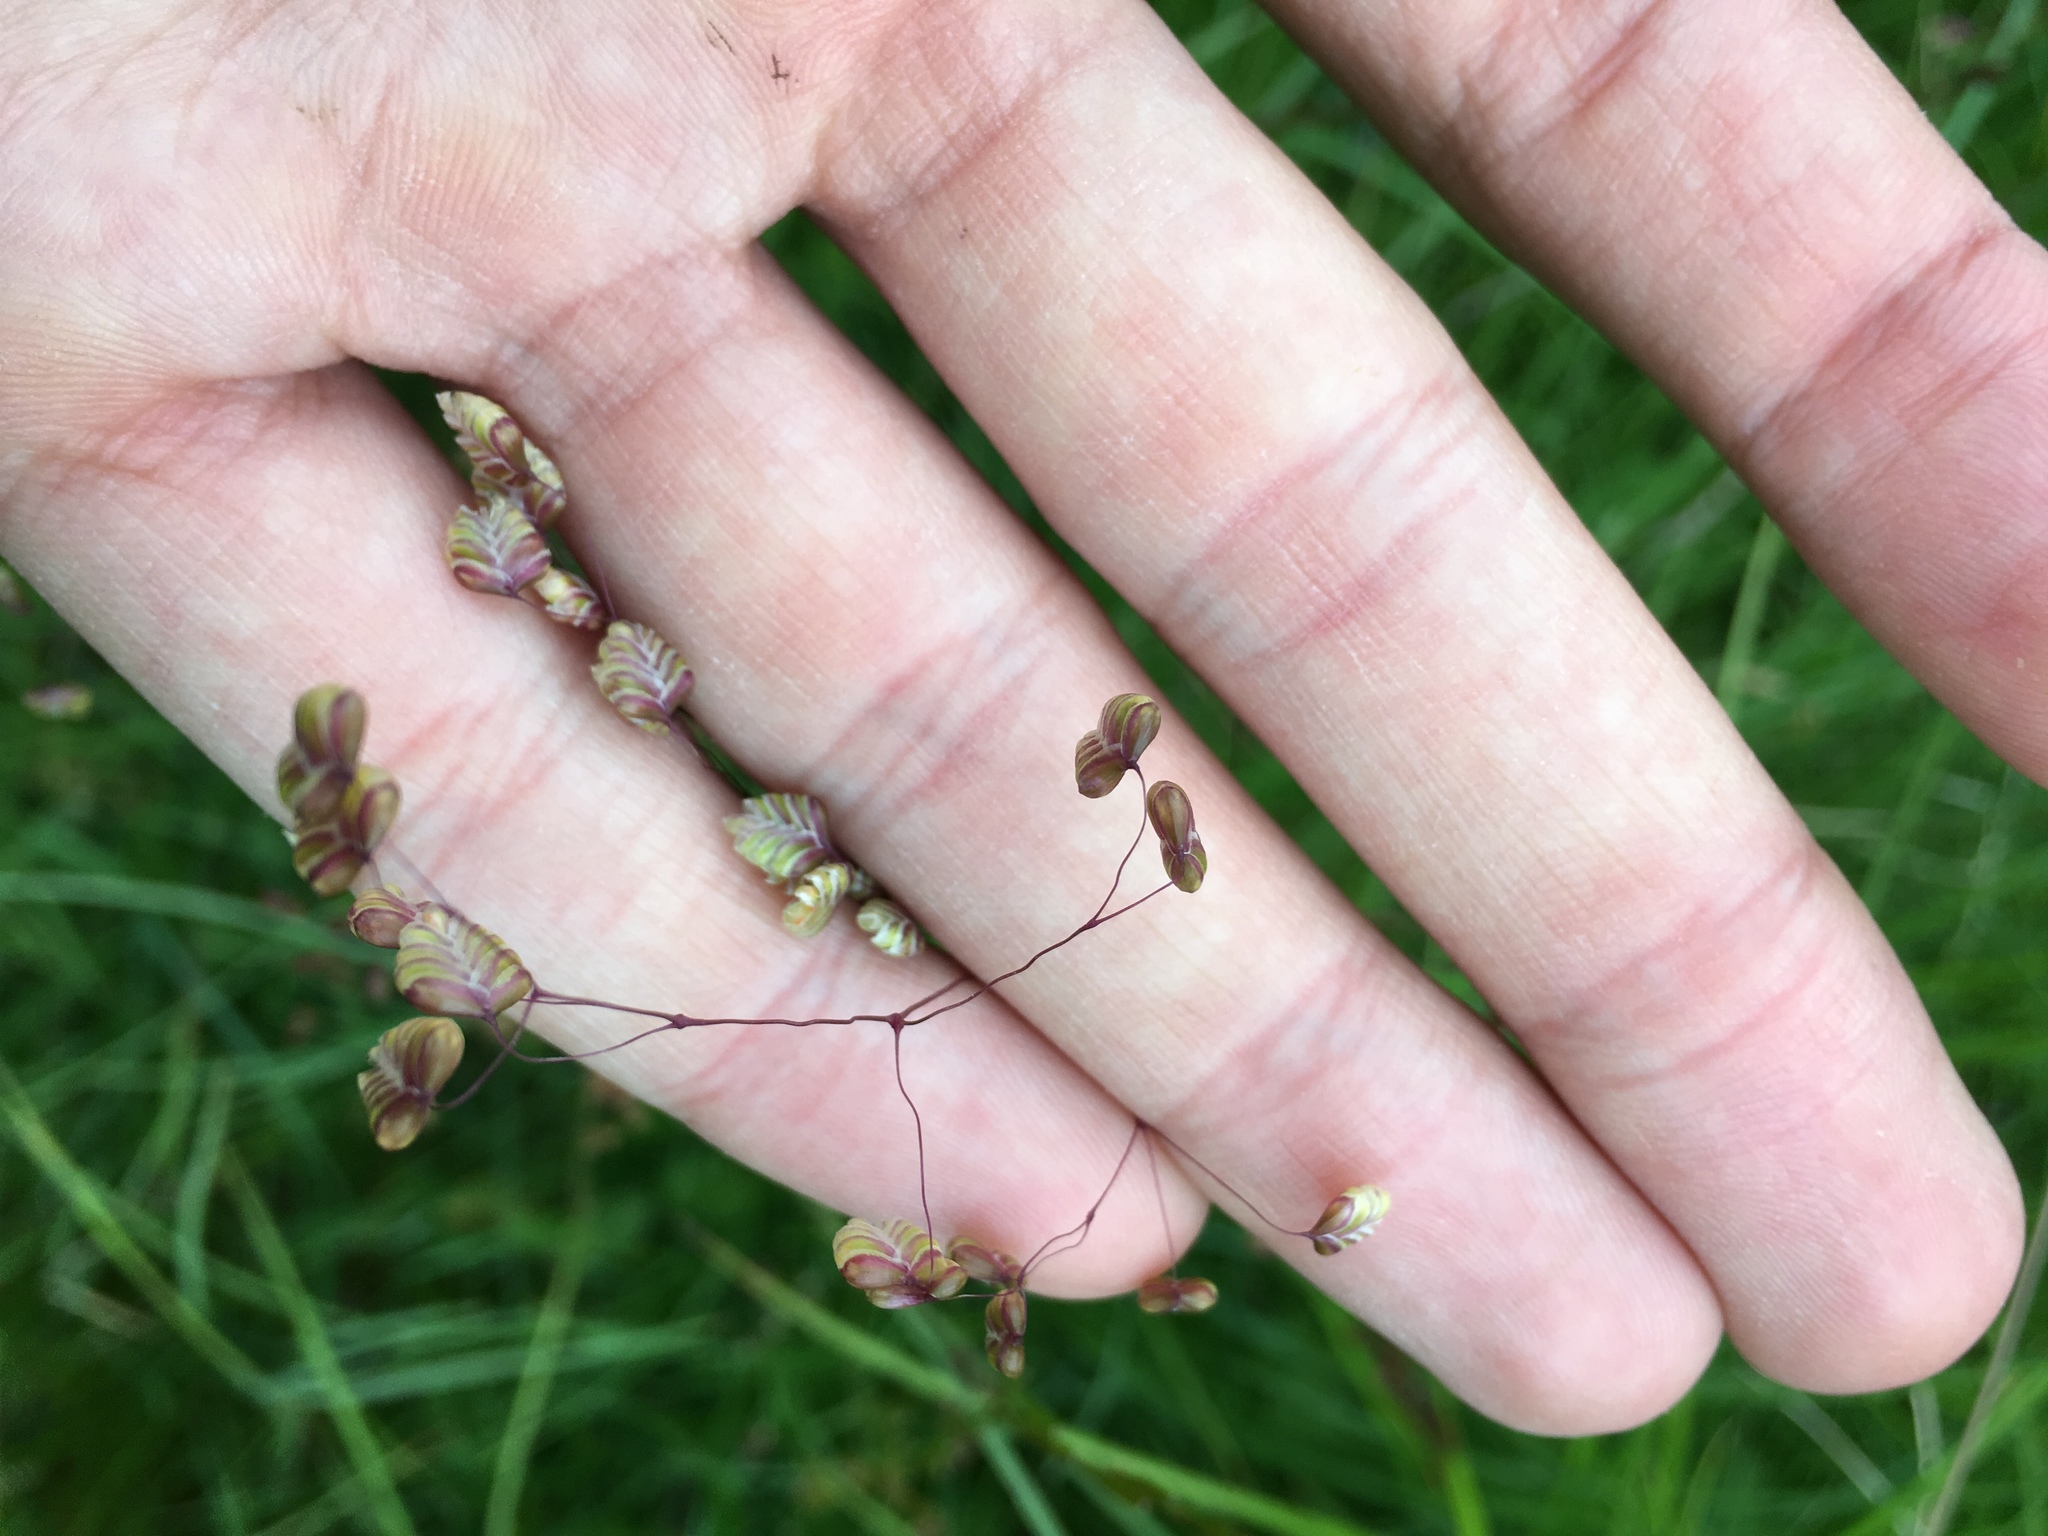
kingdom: Plantae
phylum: Tracheophyta
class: Liliopsida
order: Poales
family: Poaceae
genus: Briza
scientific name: Briza media
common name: Quaking grass
